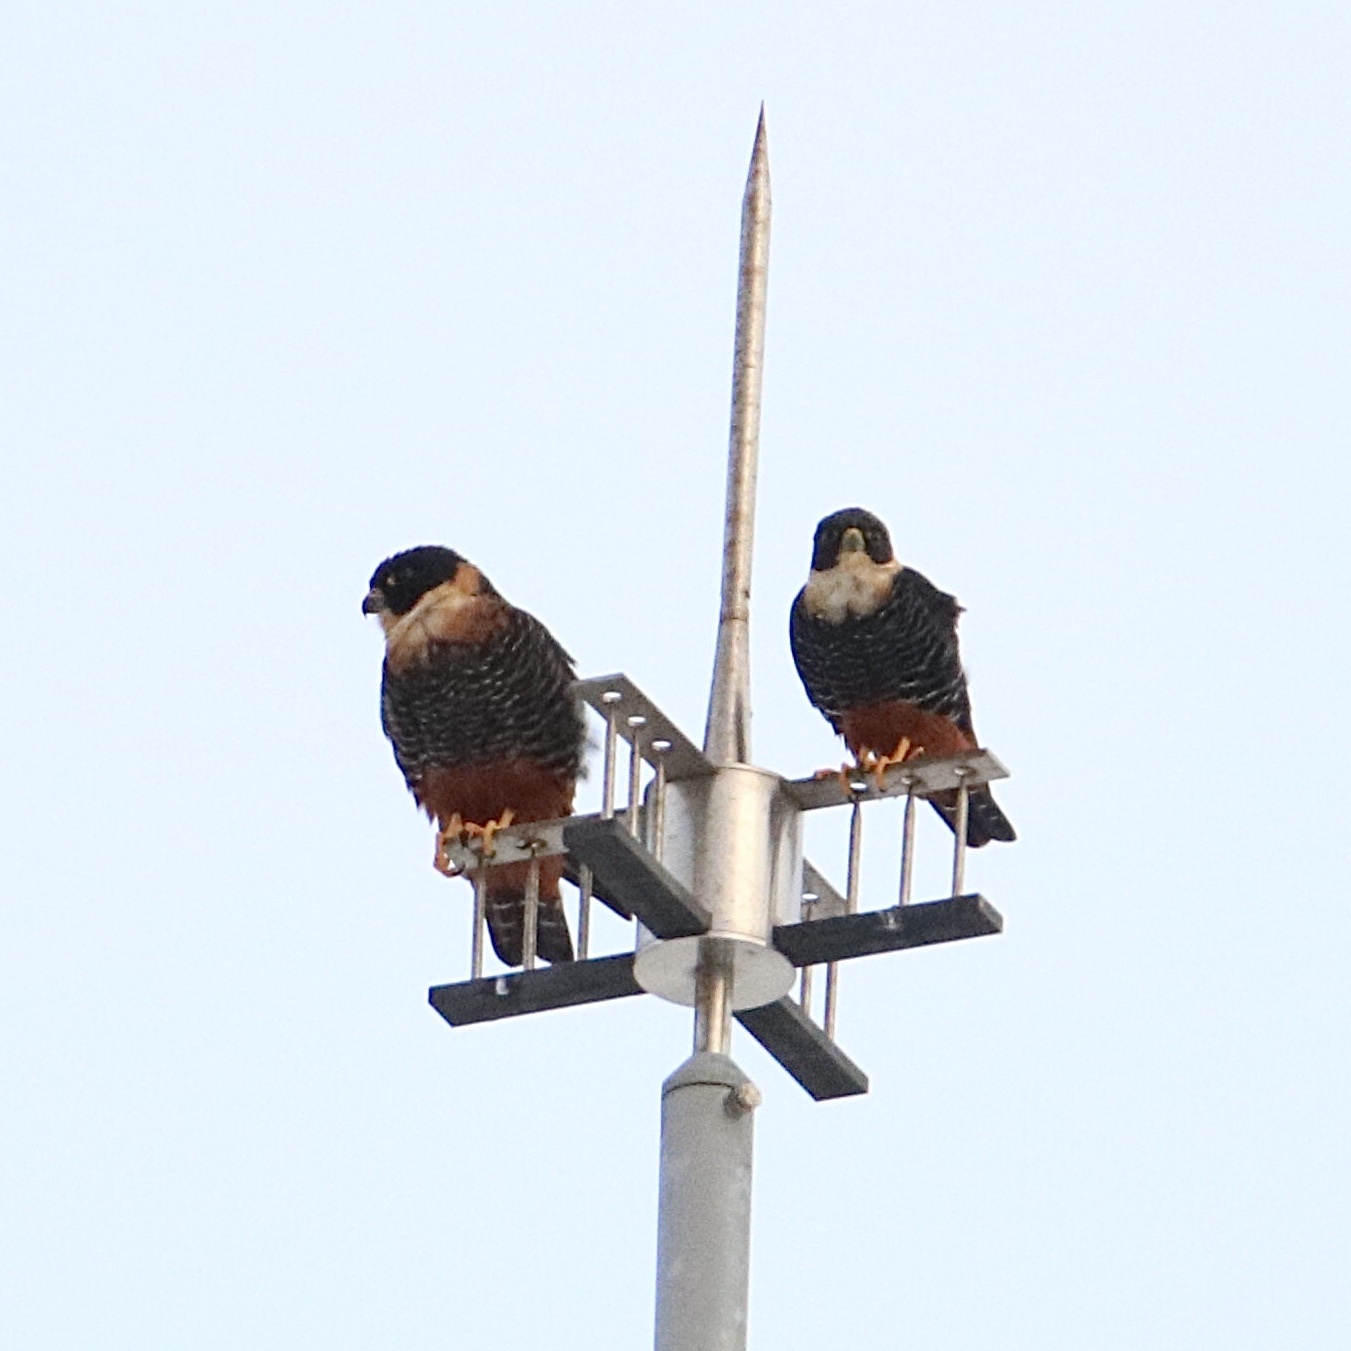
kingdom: Animalia
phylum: Chordata
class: Aves
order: Falconiformes
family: Falconidae
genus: Falco
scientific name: Falco rufigularis
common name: Bat falcon
